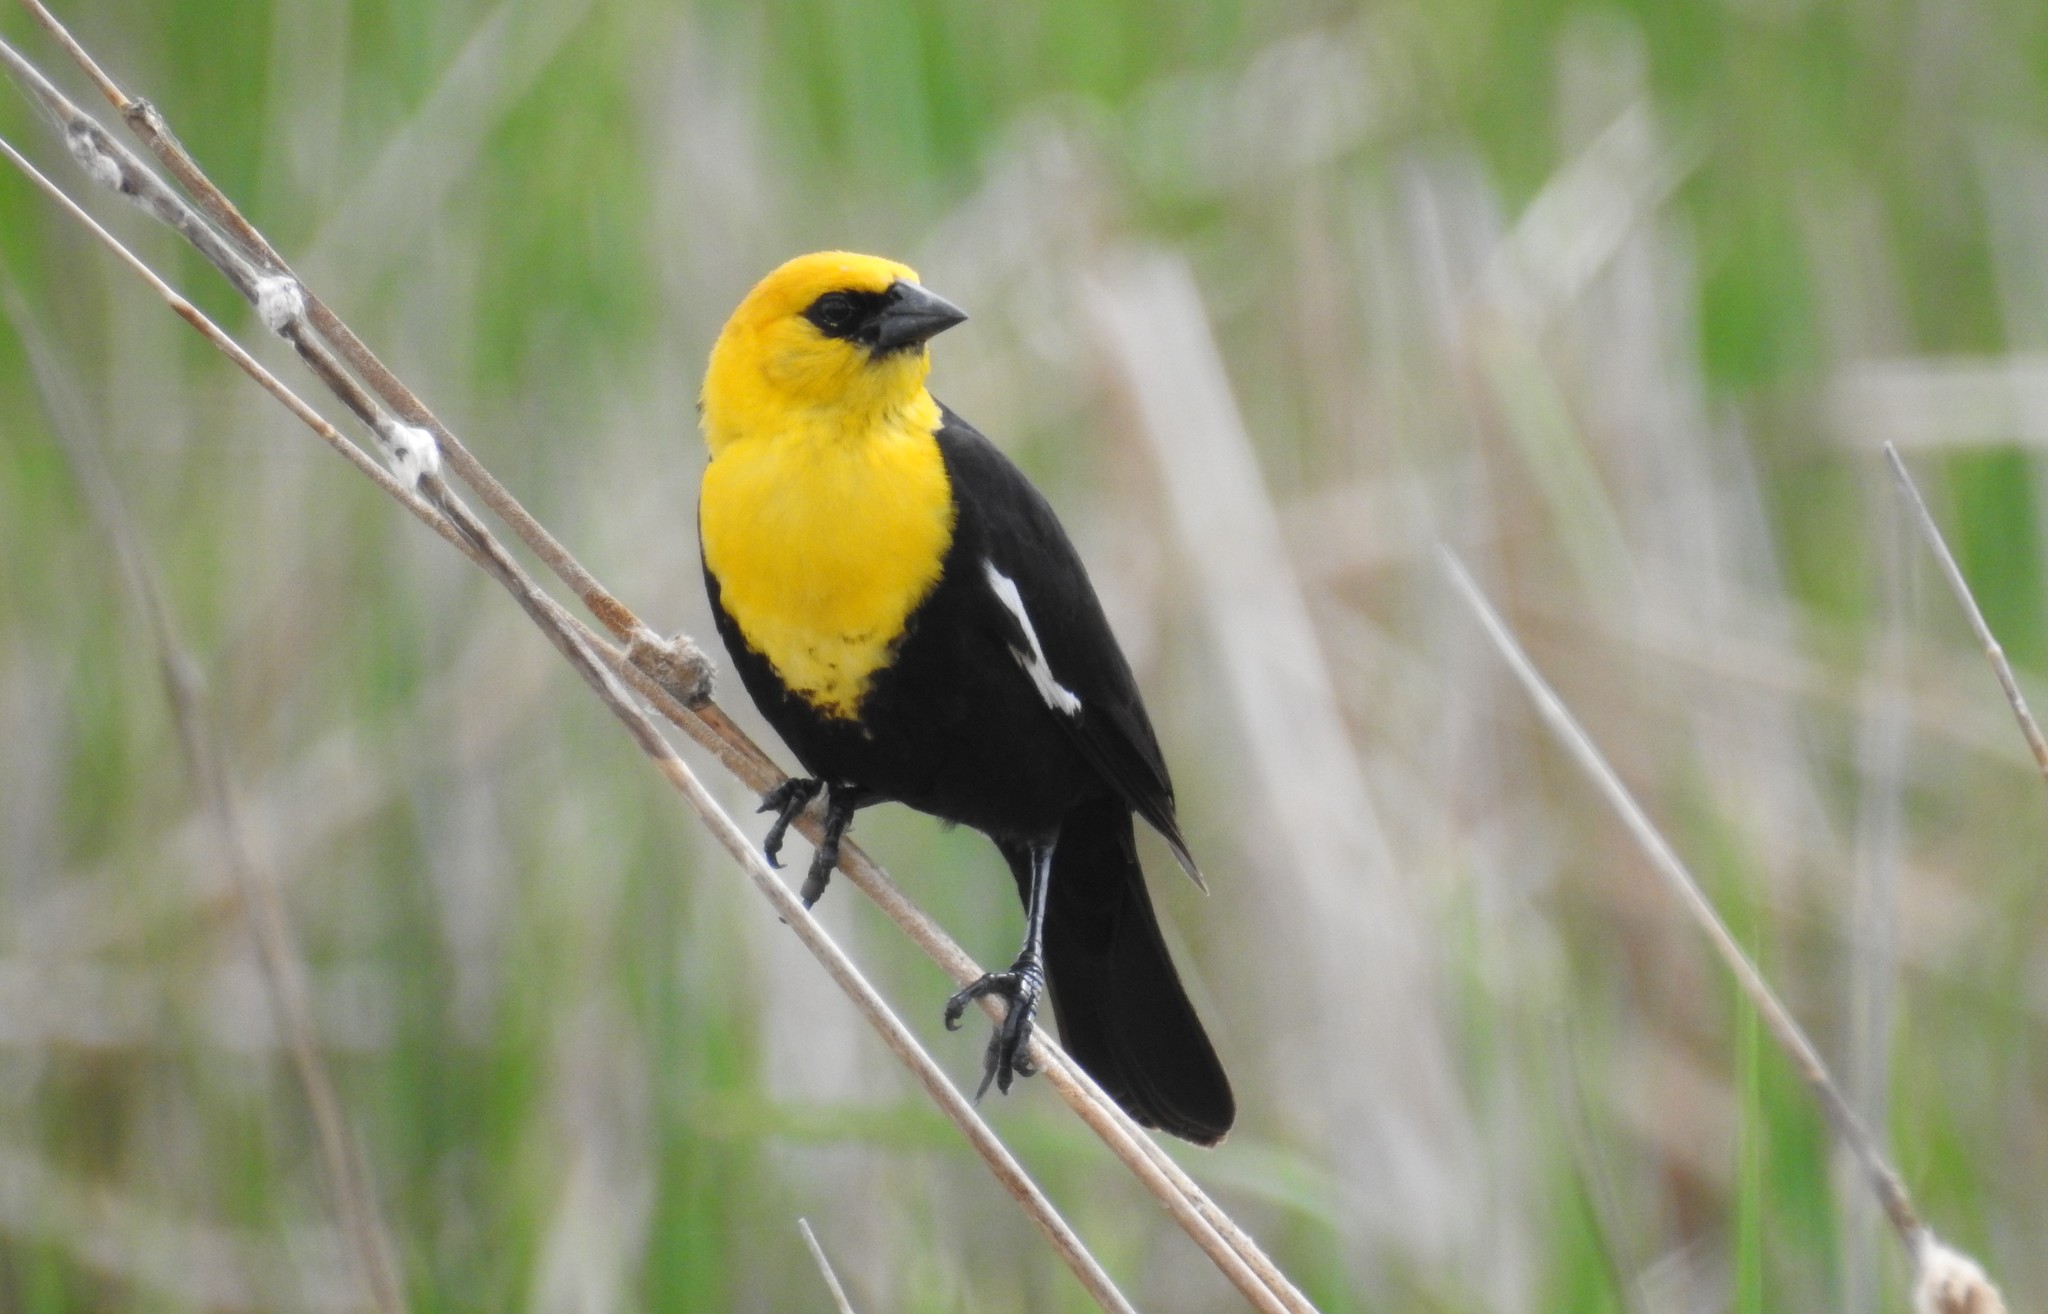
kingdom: Animalia
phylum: Chordata
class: Aves
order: Passeriformes
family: Icteridae
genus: Xanthocephalus
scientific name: Xanthocephalus xanthocephalus
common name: Yellow-headed blackbird
